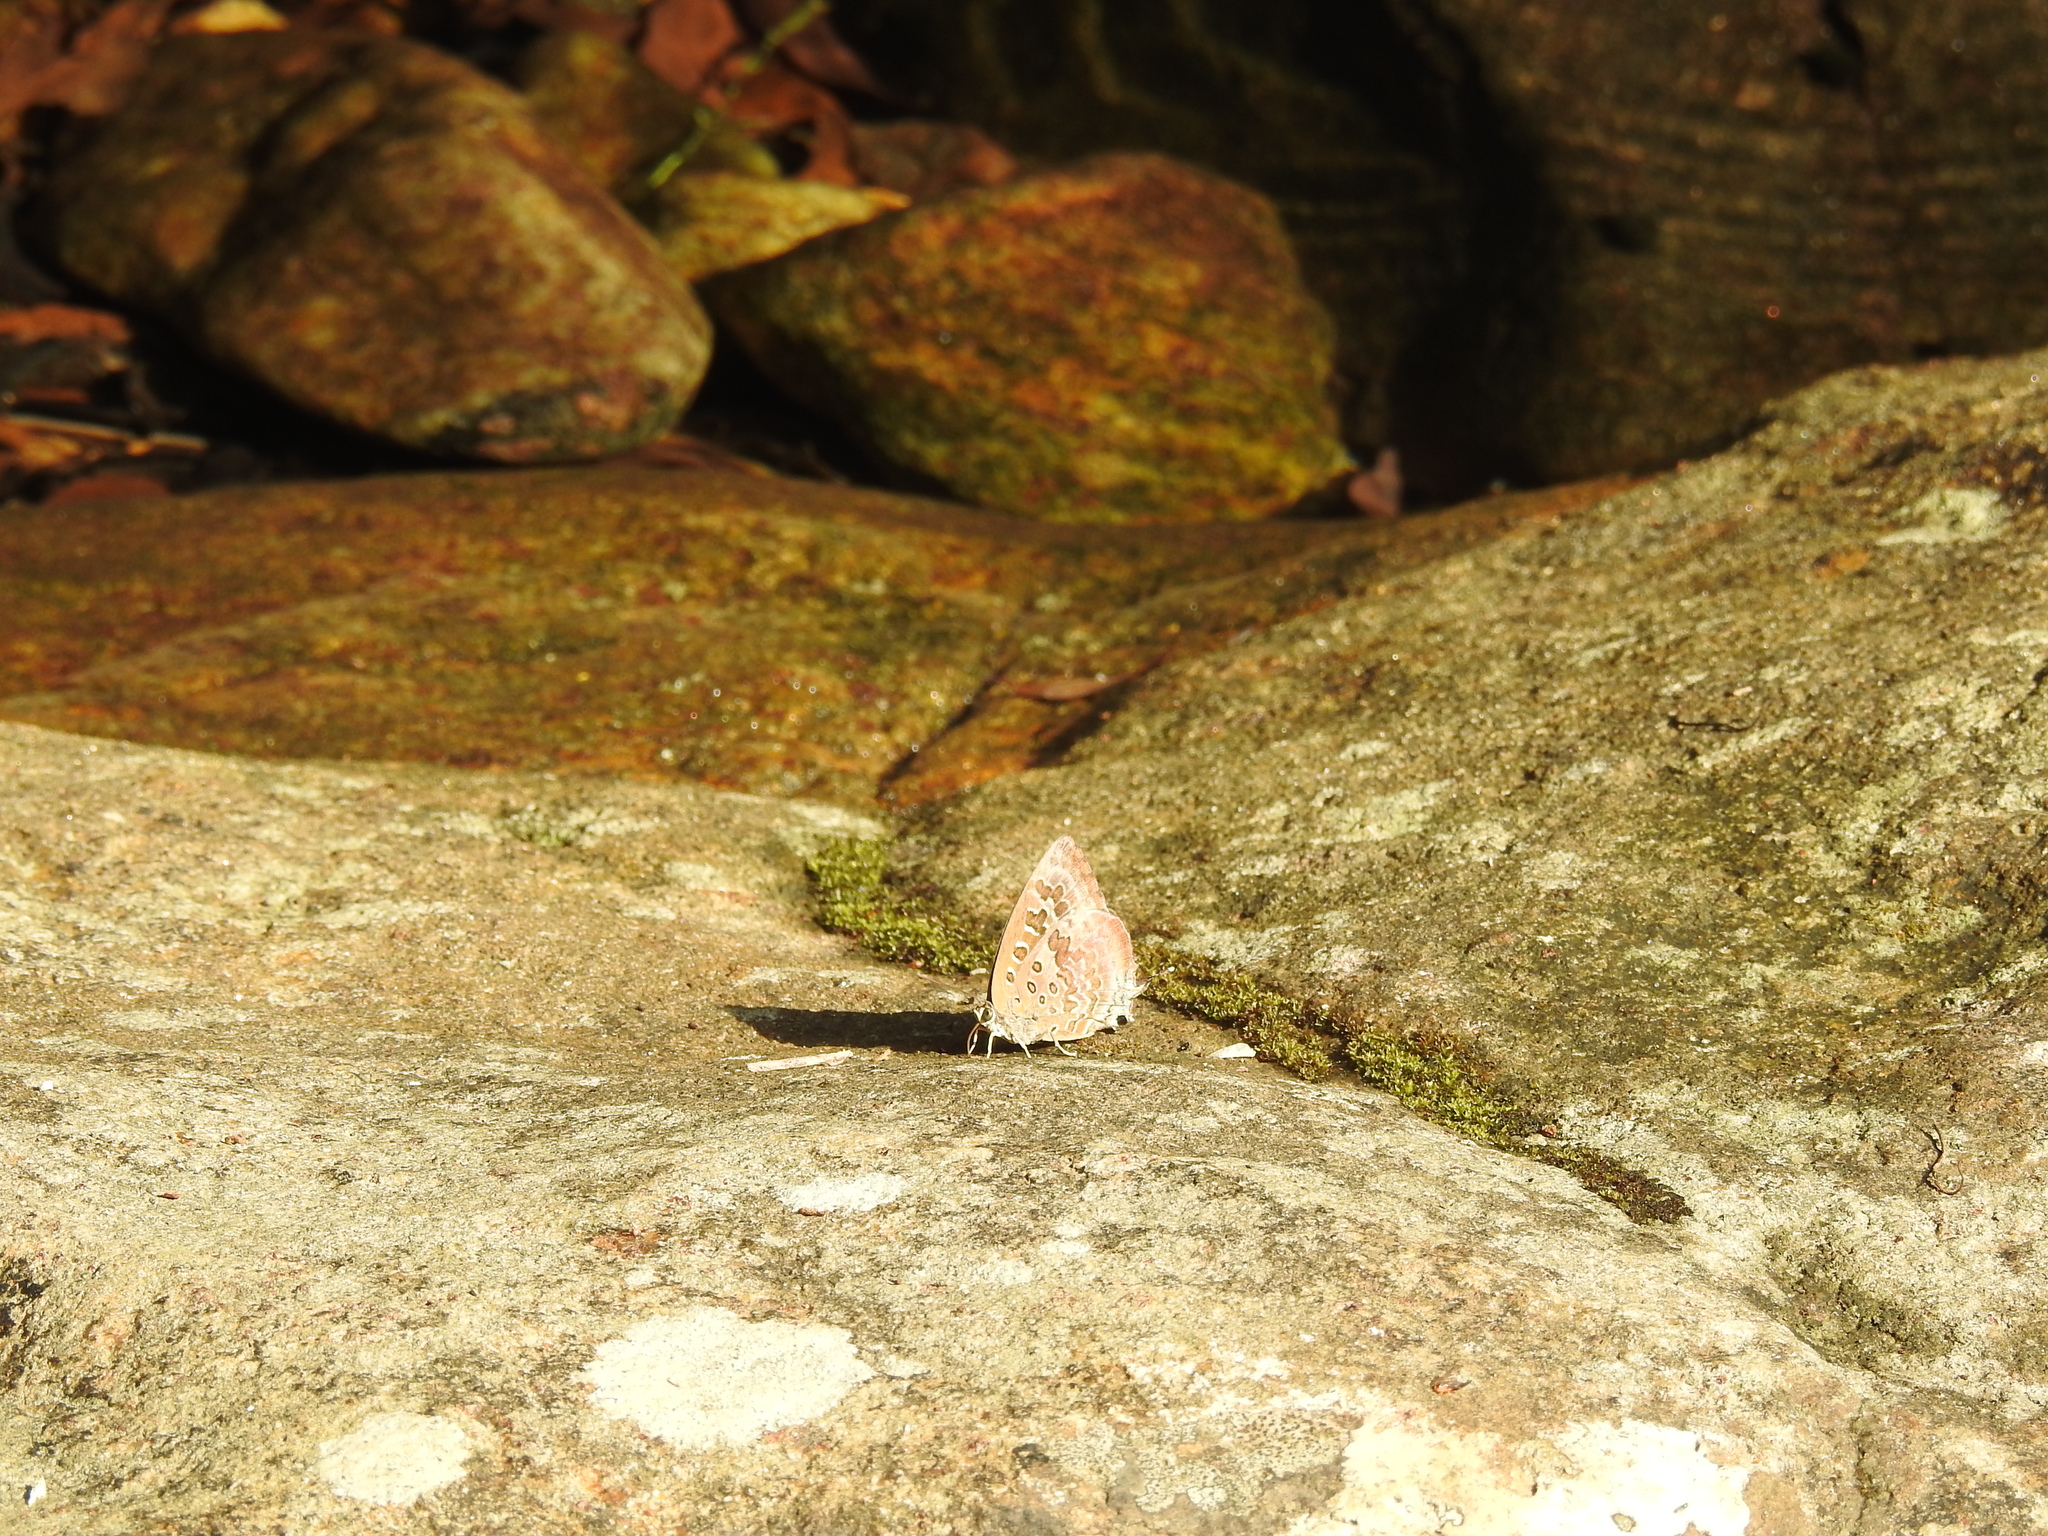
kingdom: Animalia
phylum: Arthropoda
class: Insecta
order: Lepidoptera
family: Lycaenidae
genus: Arhopala
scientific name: Arhopala amantes
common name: Large oakblue
